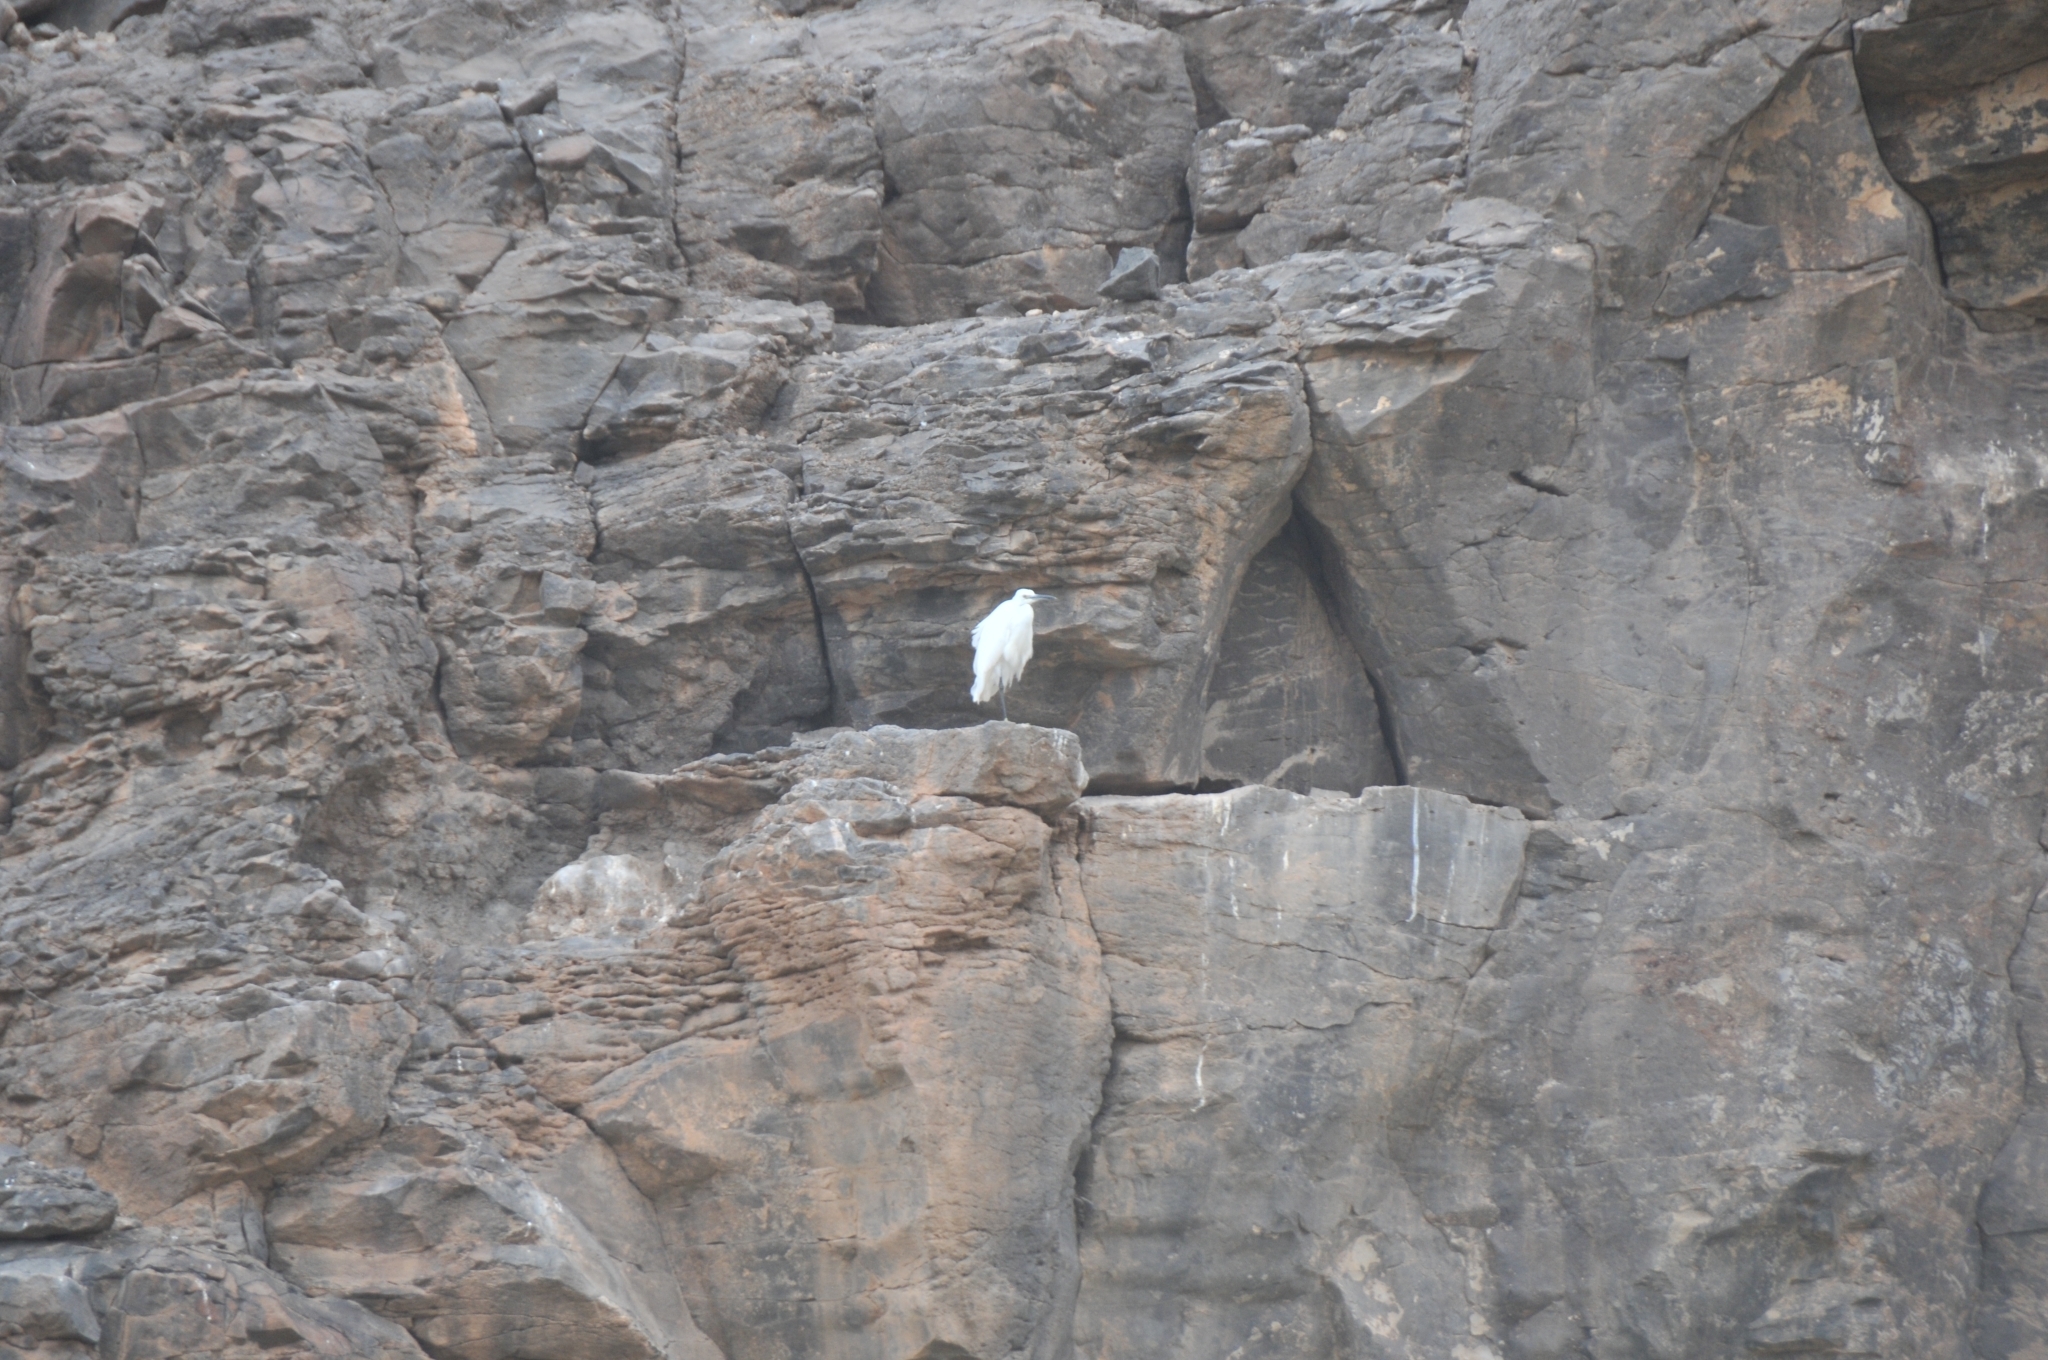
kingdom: Animalia
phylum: Chordata
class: Aves
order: Pelecaniformes
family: Ardeidae
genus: Egretta
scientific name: Egretta garzetta
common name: Little egret
